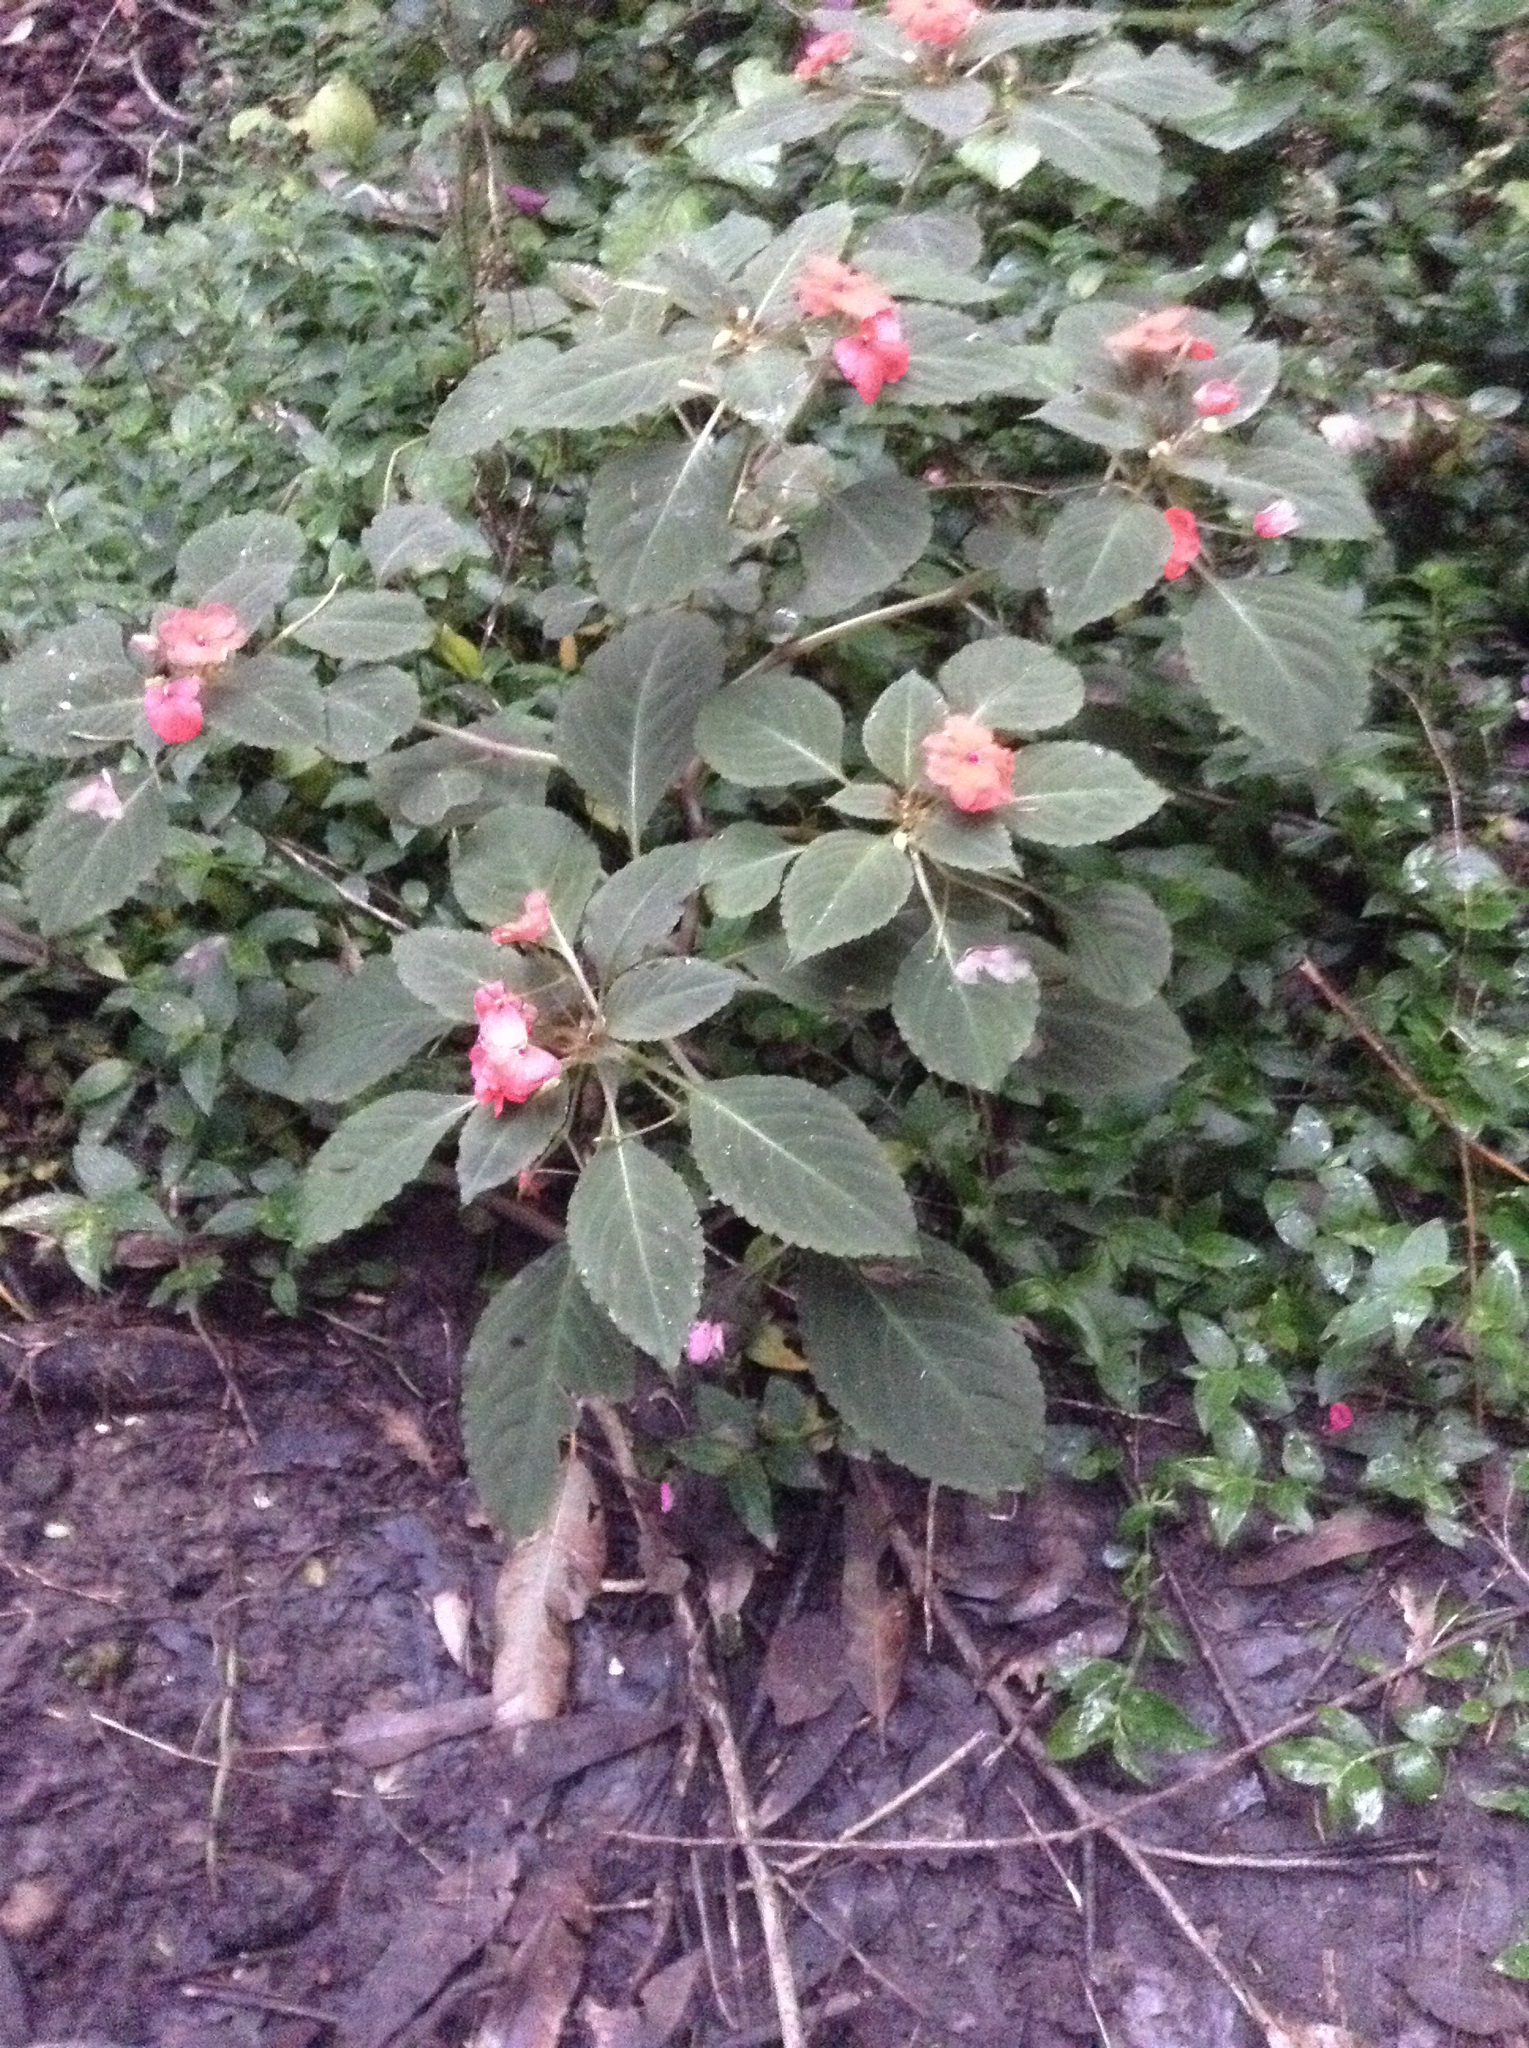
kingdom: Plantae
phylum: Tracheophyta
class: Magnoliopsida
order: Ericales
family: Balsaminaceae
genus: Impatiens
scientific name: Impatiens walleriana
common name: Buzzy lizzy
